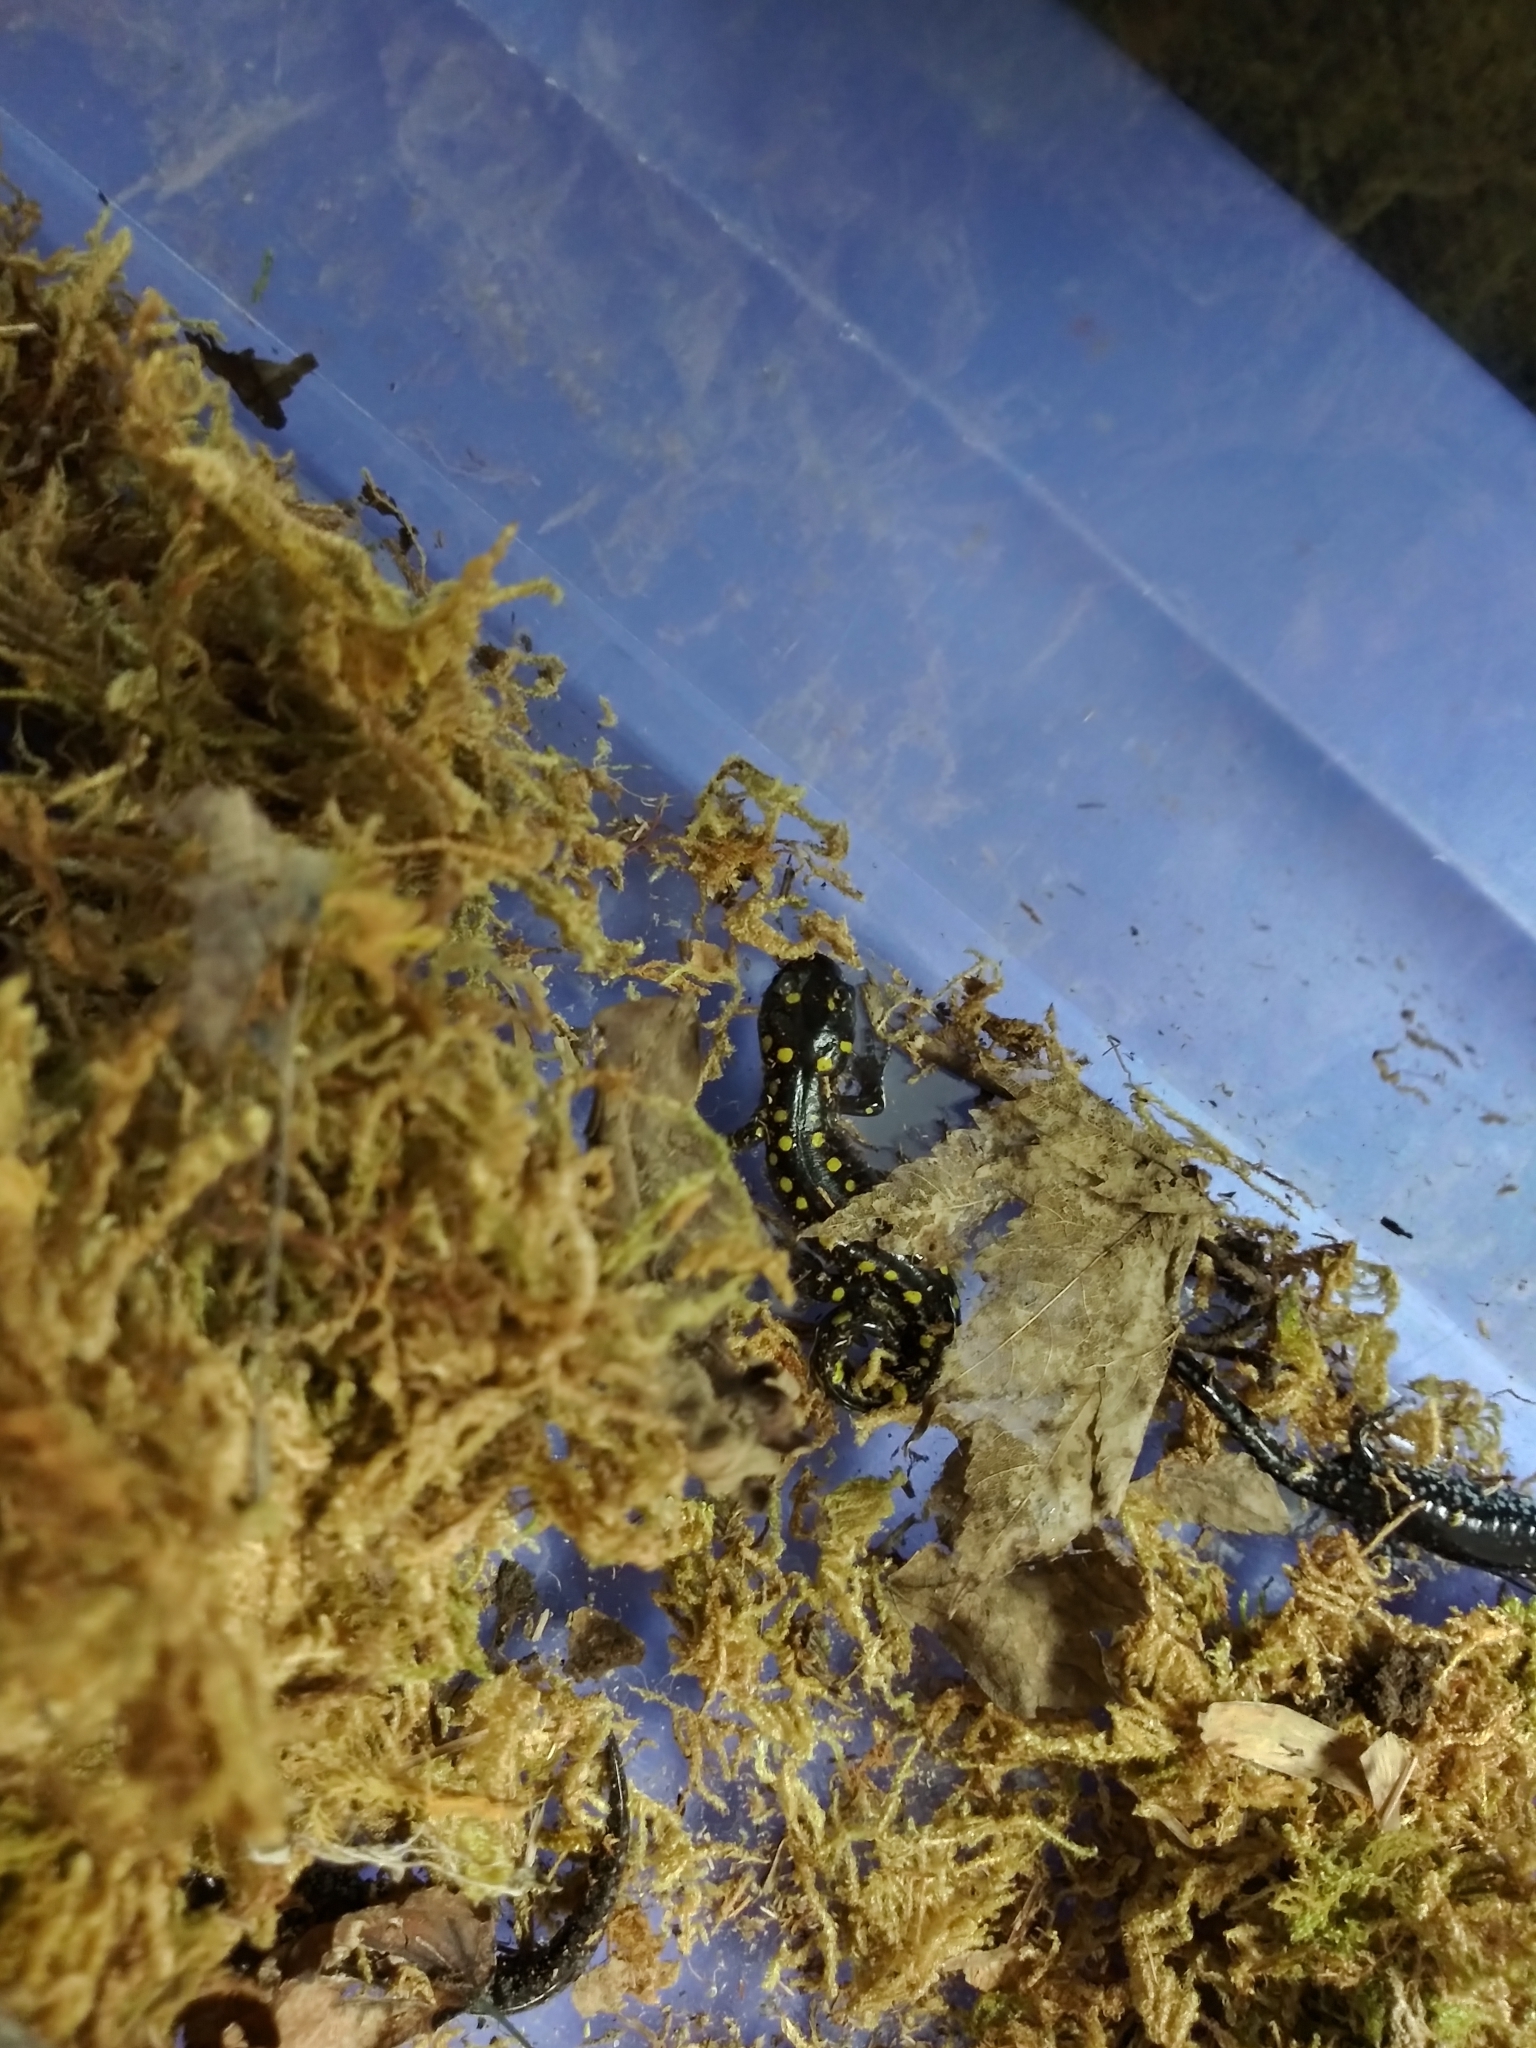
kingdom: Animalia
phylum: Chordata
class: Amphibia
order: Caudata
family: Ambystomatidae
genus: Ambystoma
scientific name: Ambystoma maculatum
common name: Spotted salamander
